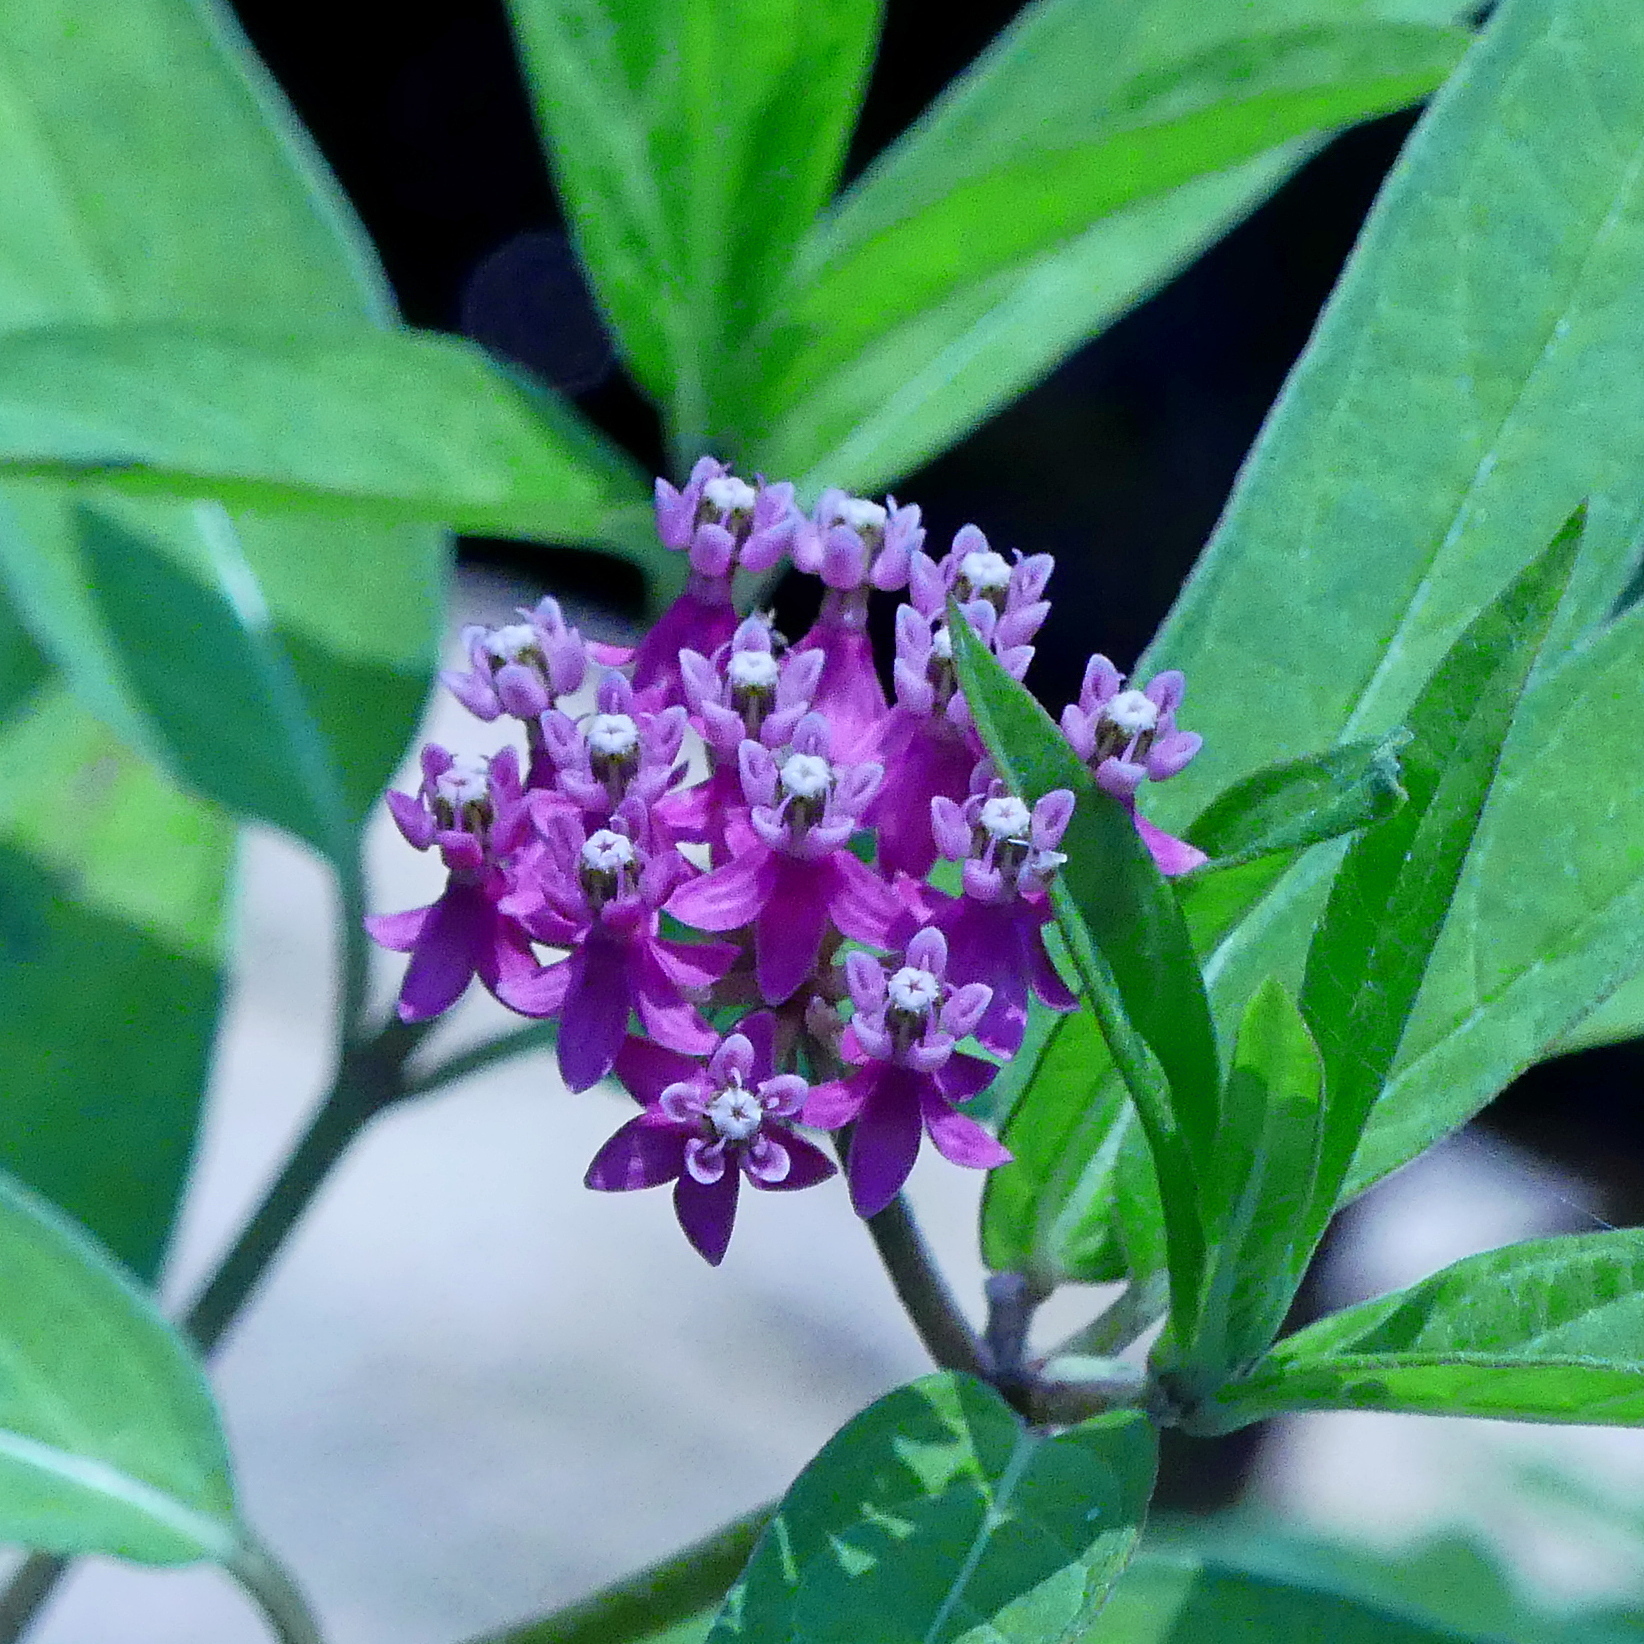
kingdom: Plantae
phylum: Tracheophyta
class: Magnoliopsida
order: Gentianales
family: Apocynaceae
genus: Asclepias
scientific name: Asclepias incarnata
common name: Swamp milkweed
